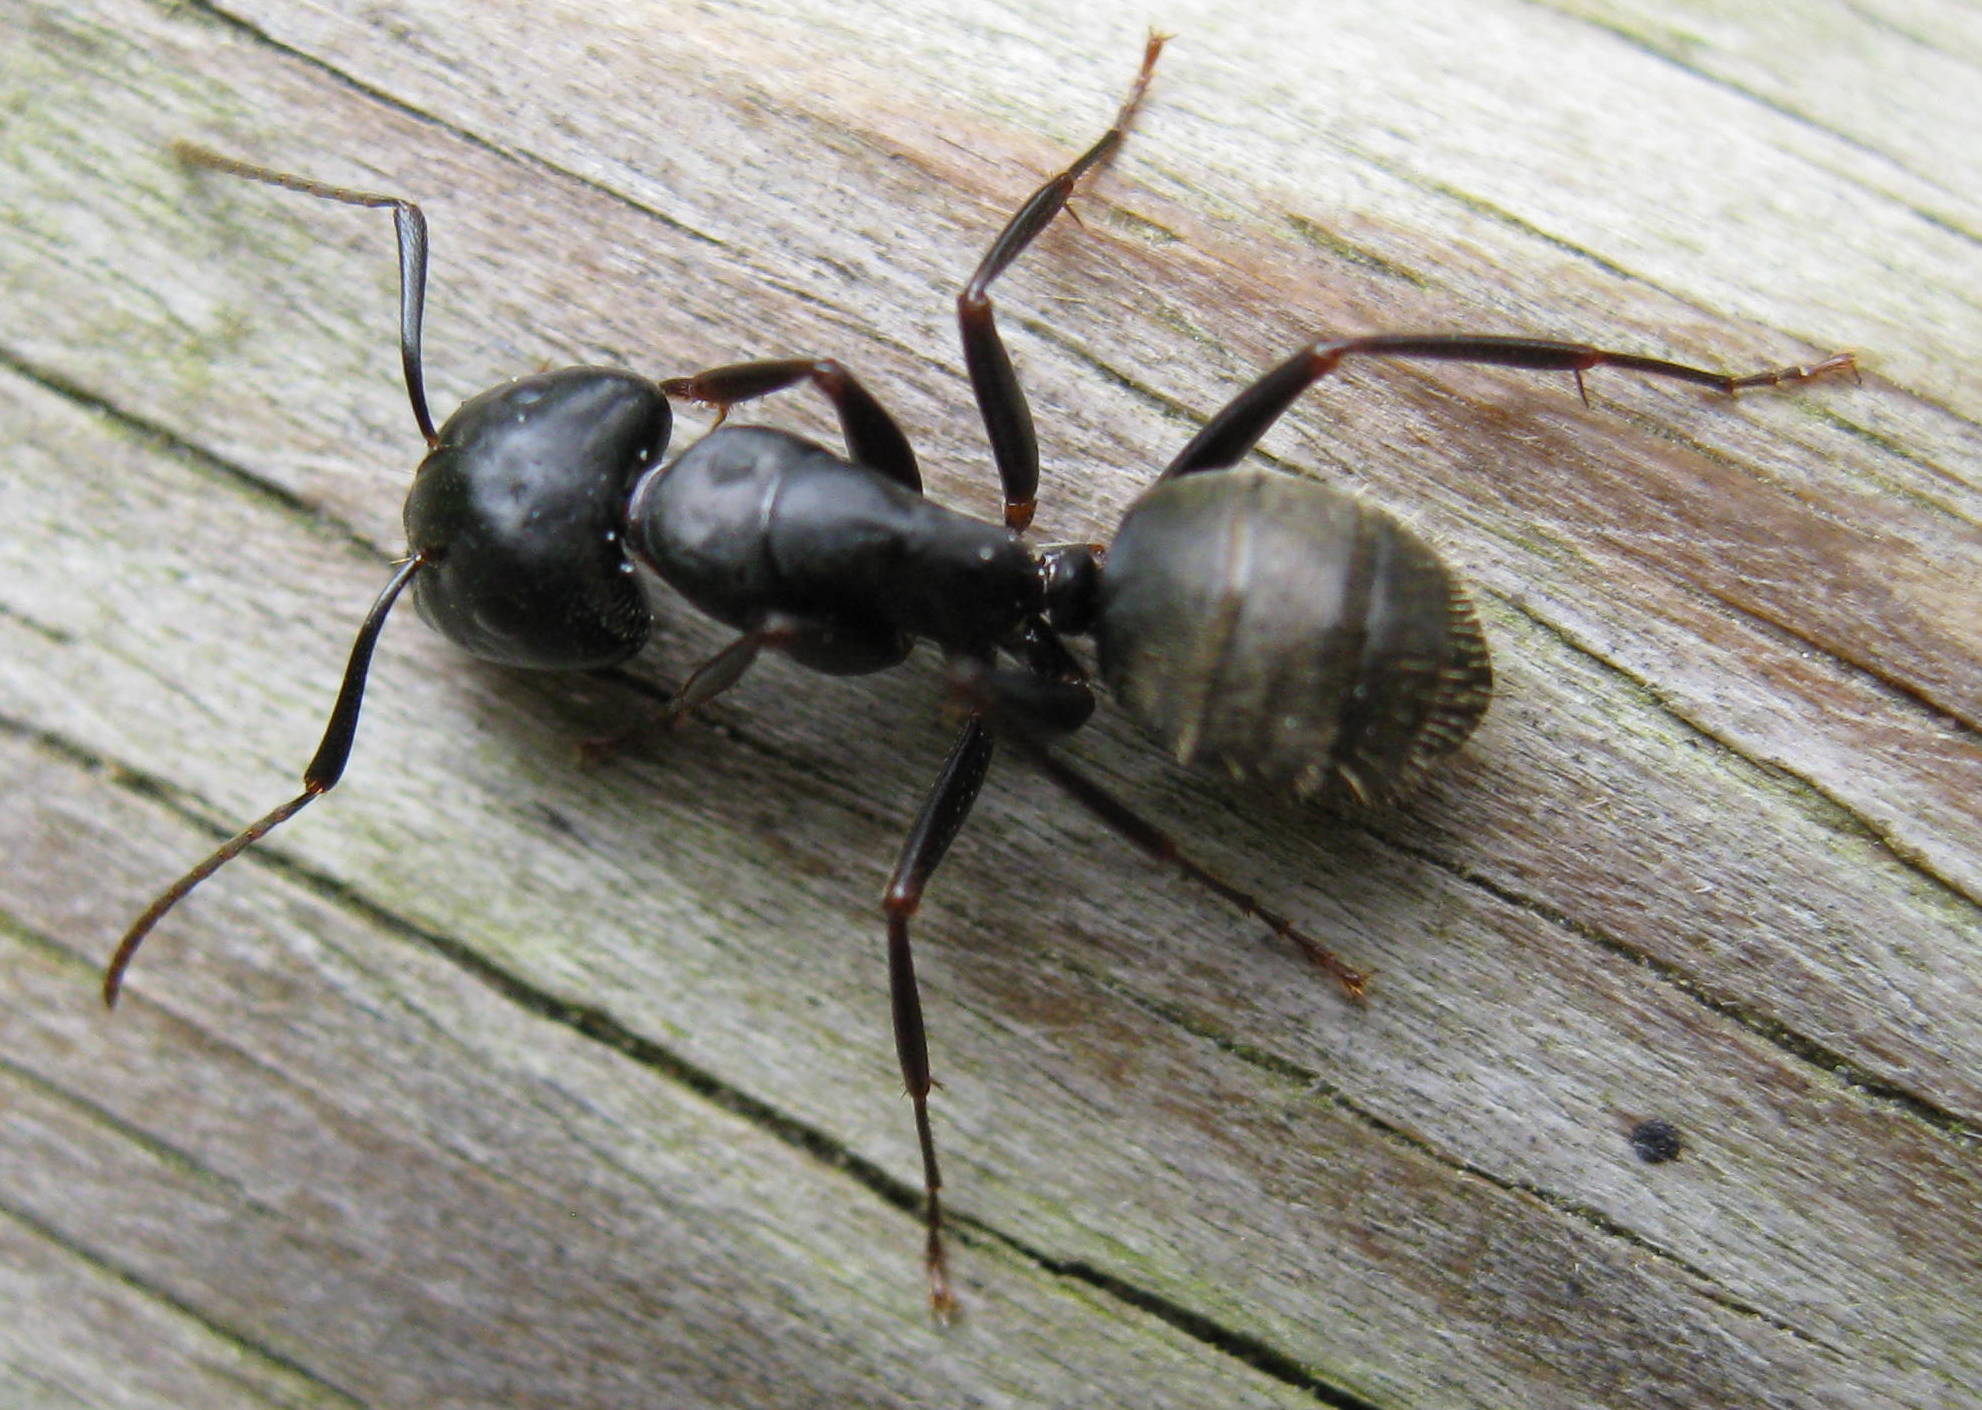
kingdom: Animalia
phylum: Arthropoda
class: Insecta
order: Hymenoptera
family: Formicidae
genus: Camponotus
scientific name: Camponotus pennsylvanicus
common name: Black carpenter ant
